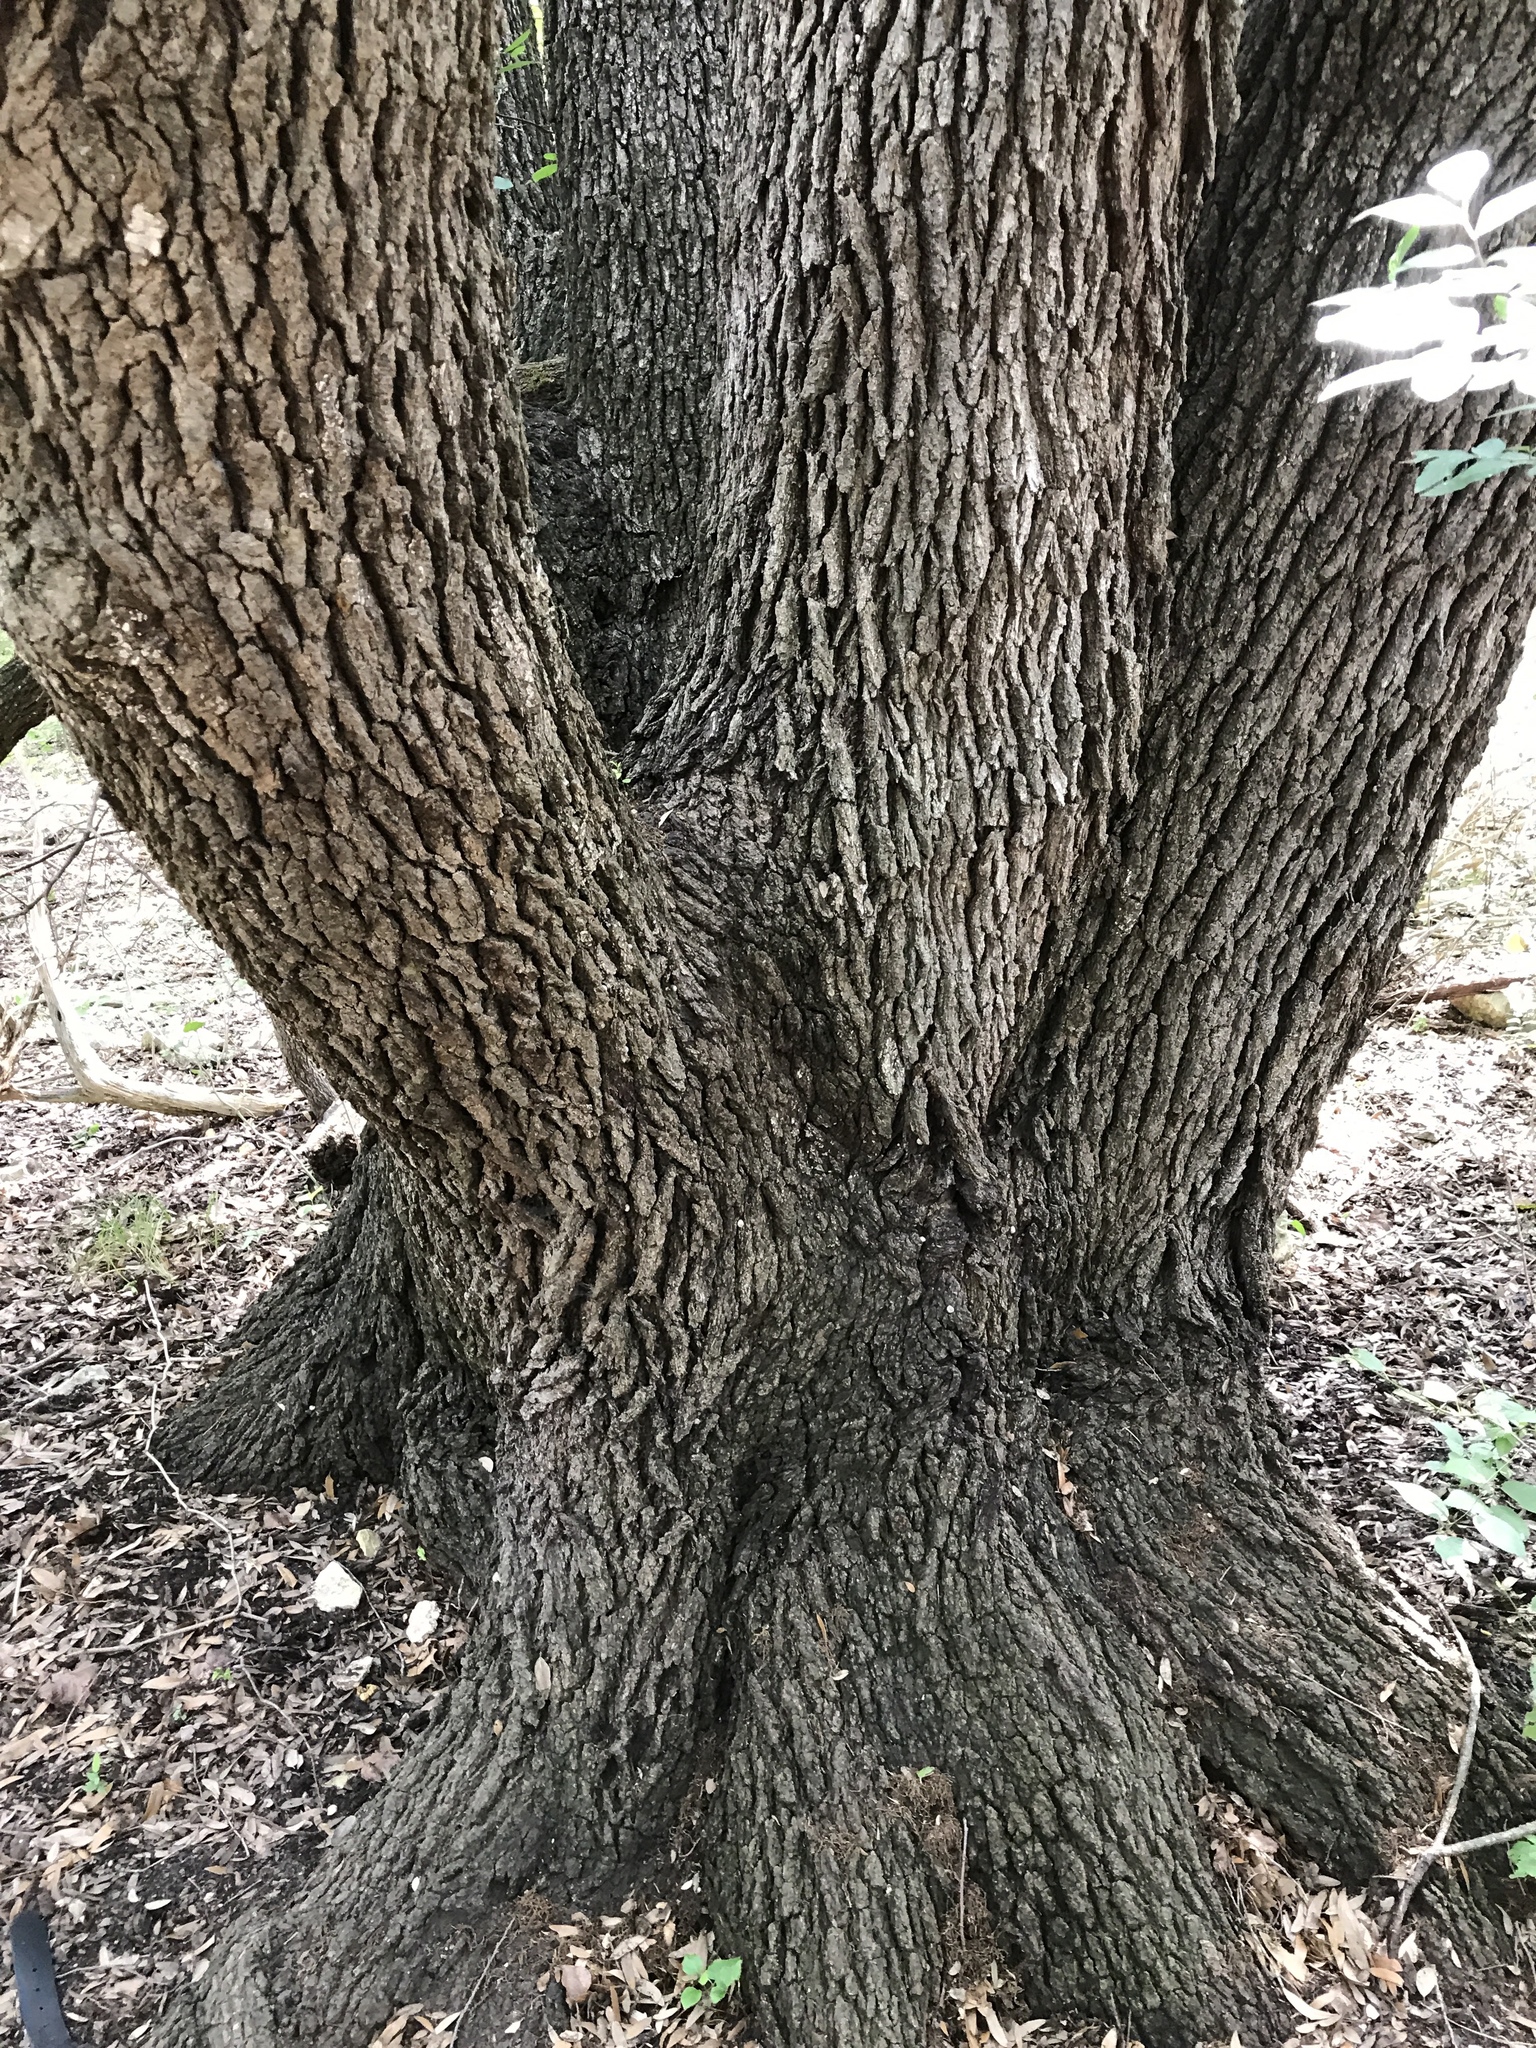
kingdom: Plantae
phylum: Tracheophyta
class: Magnoliopsida
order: Fagales
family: Fagaceae
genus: Quercus
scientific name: Quercus fusiformis
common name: Texas live oak
